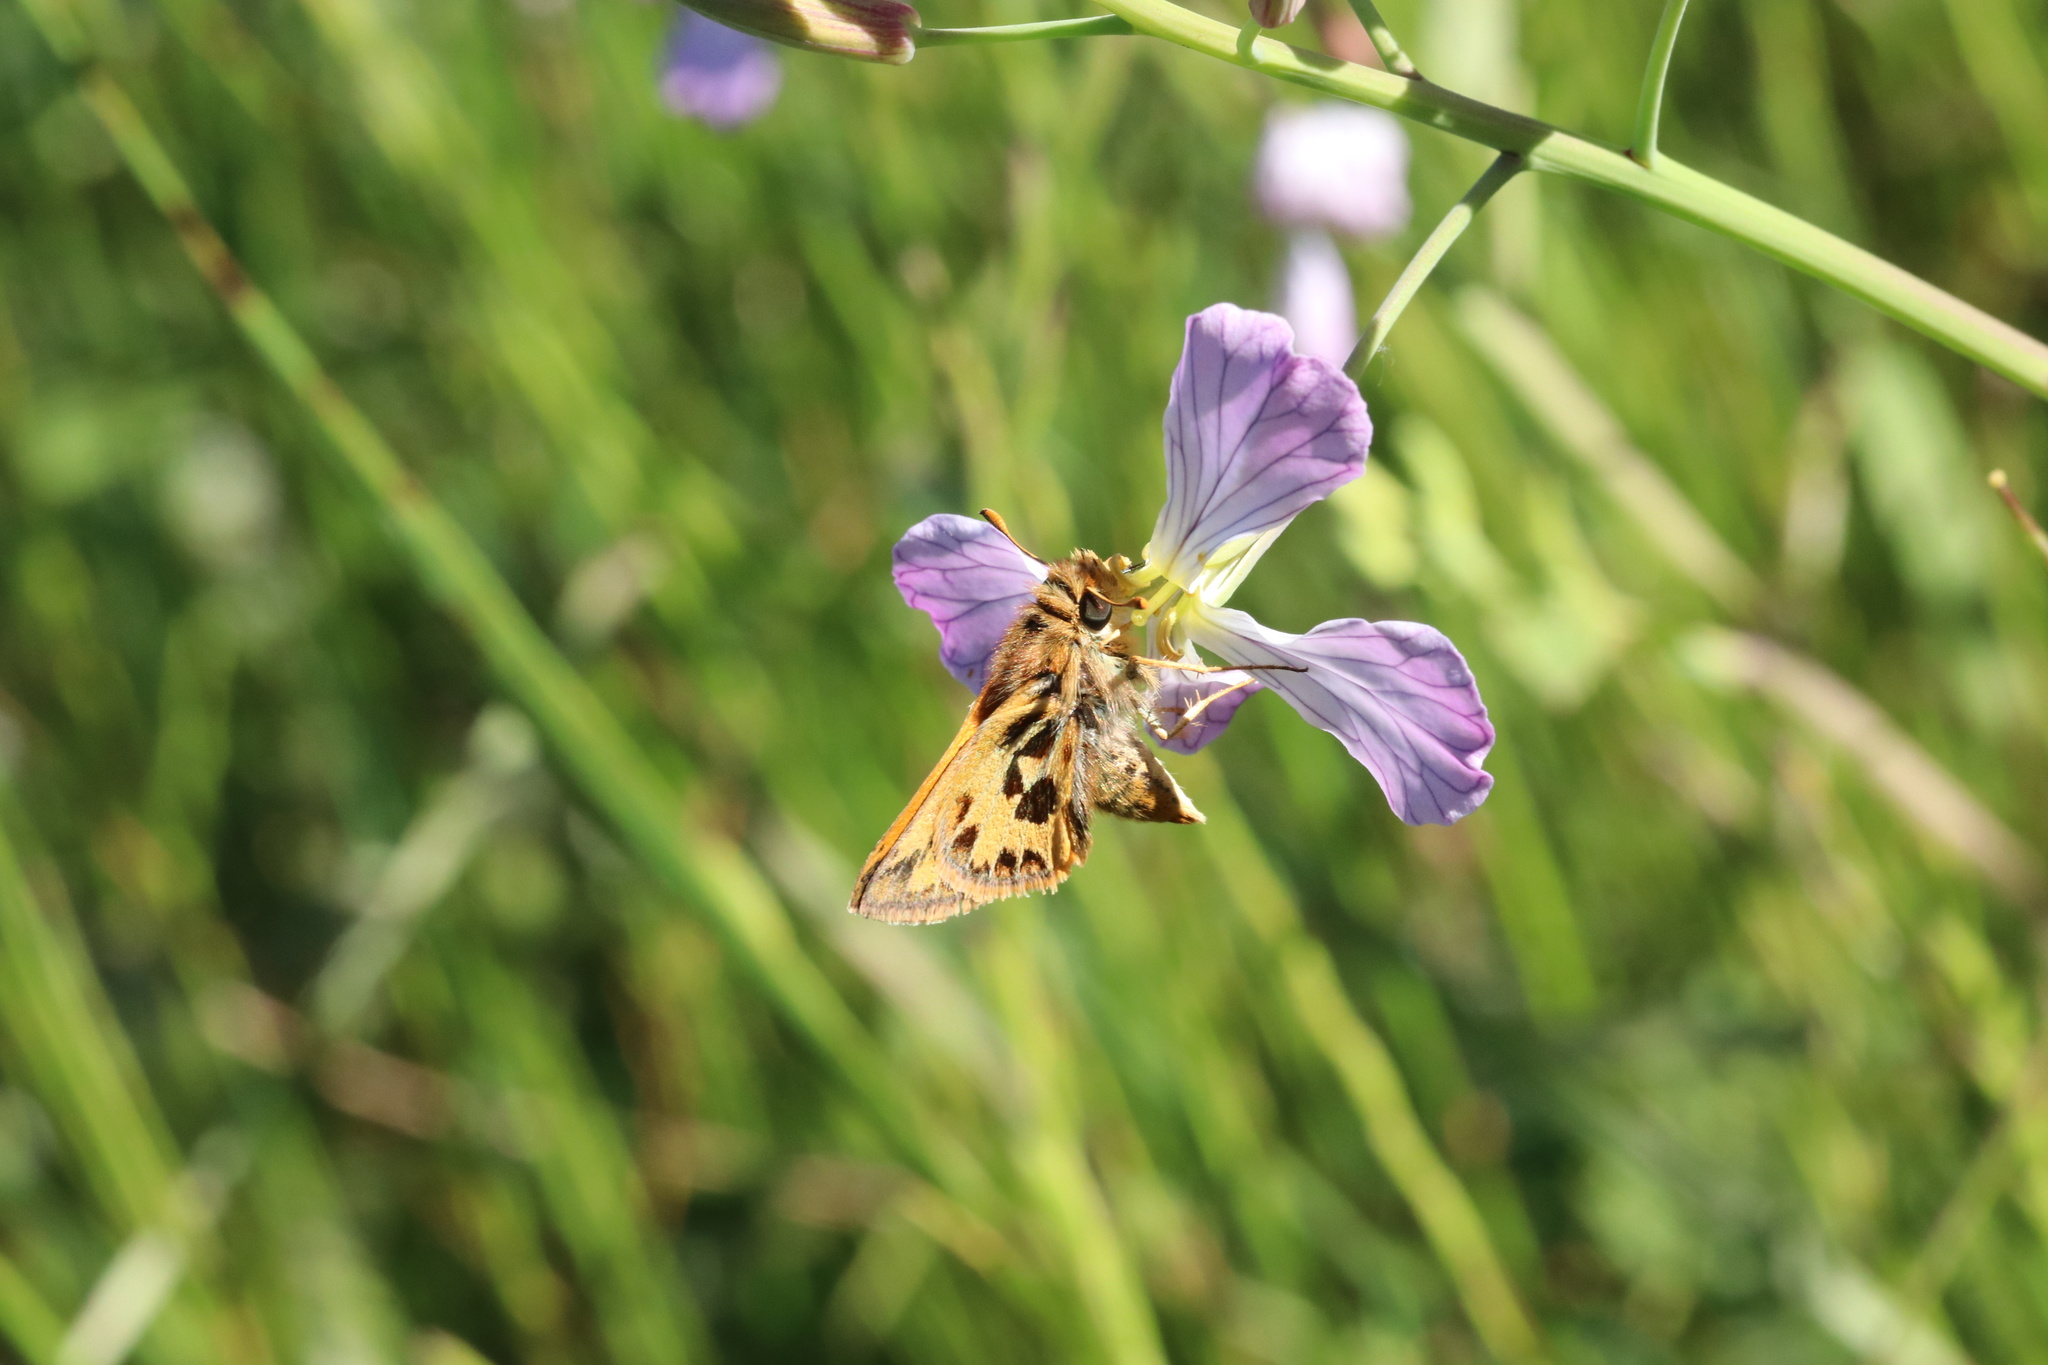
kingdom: Animalia
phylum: Arthropoda
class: Insecta
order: Lepidoptera
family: Hesperiidae
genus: Hylephila
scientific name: Hylephila fasciolata
